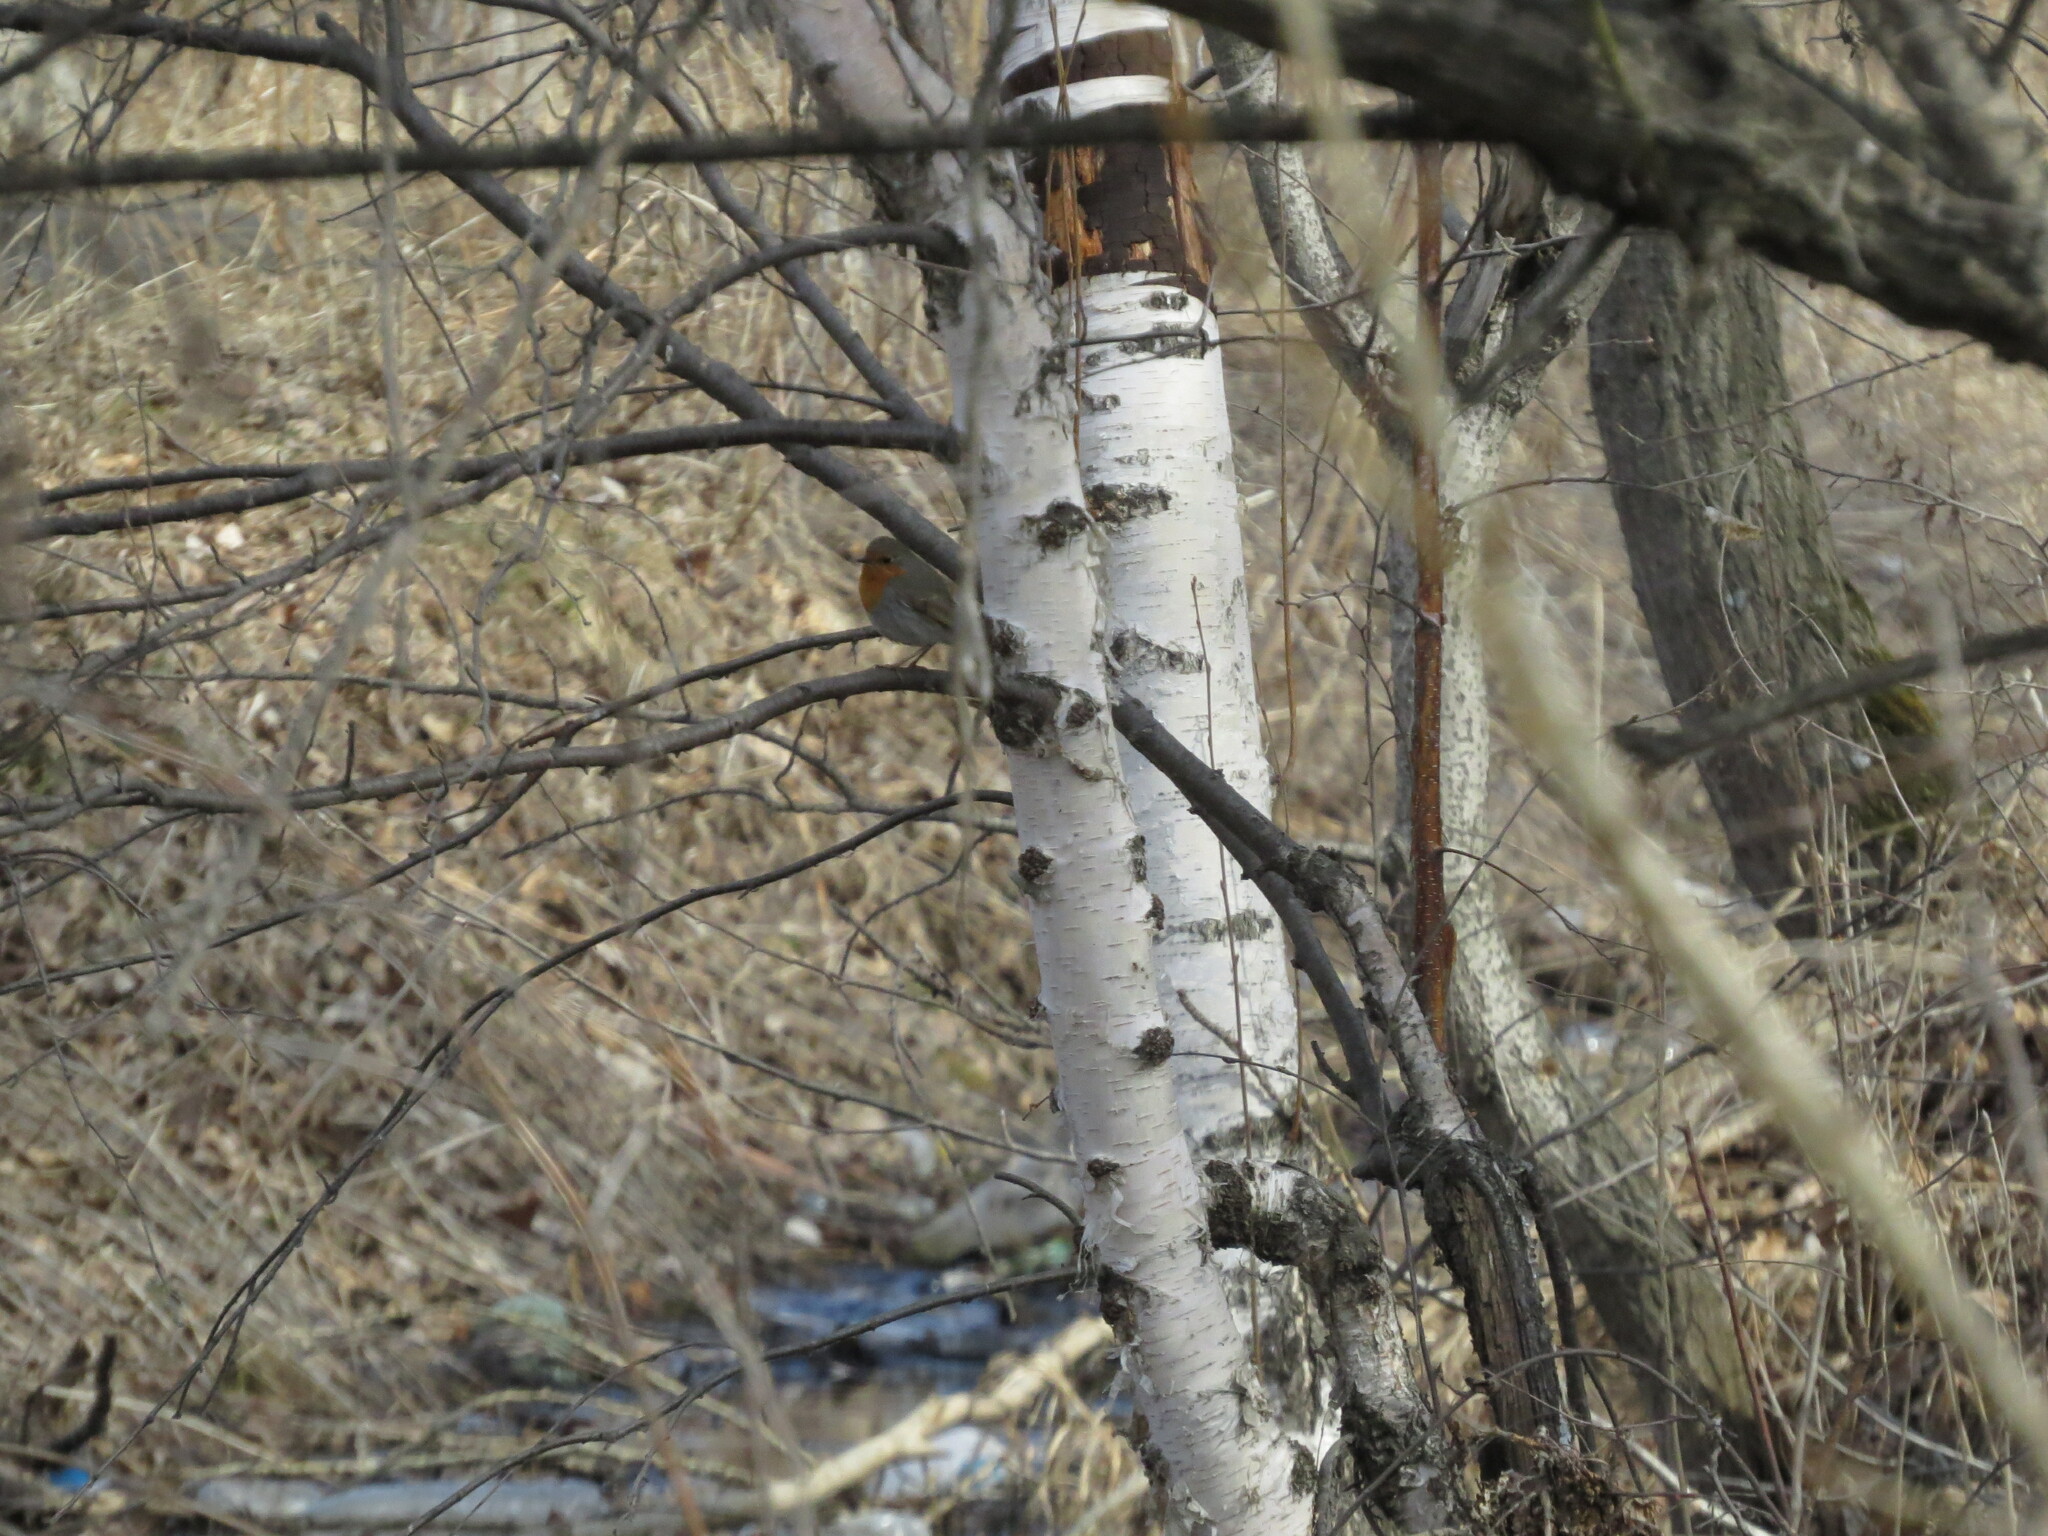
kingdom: Animalia
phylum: Chordata
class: Aves
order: Passeriformes
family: Muscicapidae
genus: Erithacus
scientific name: Erithacus rubecula
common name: European robin
